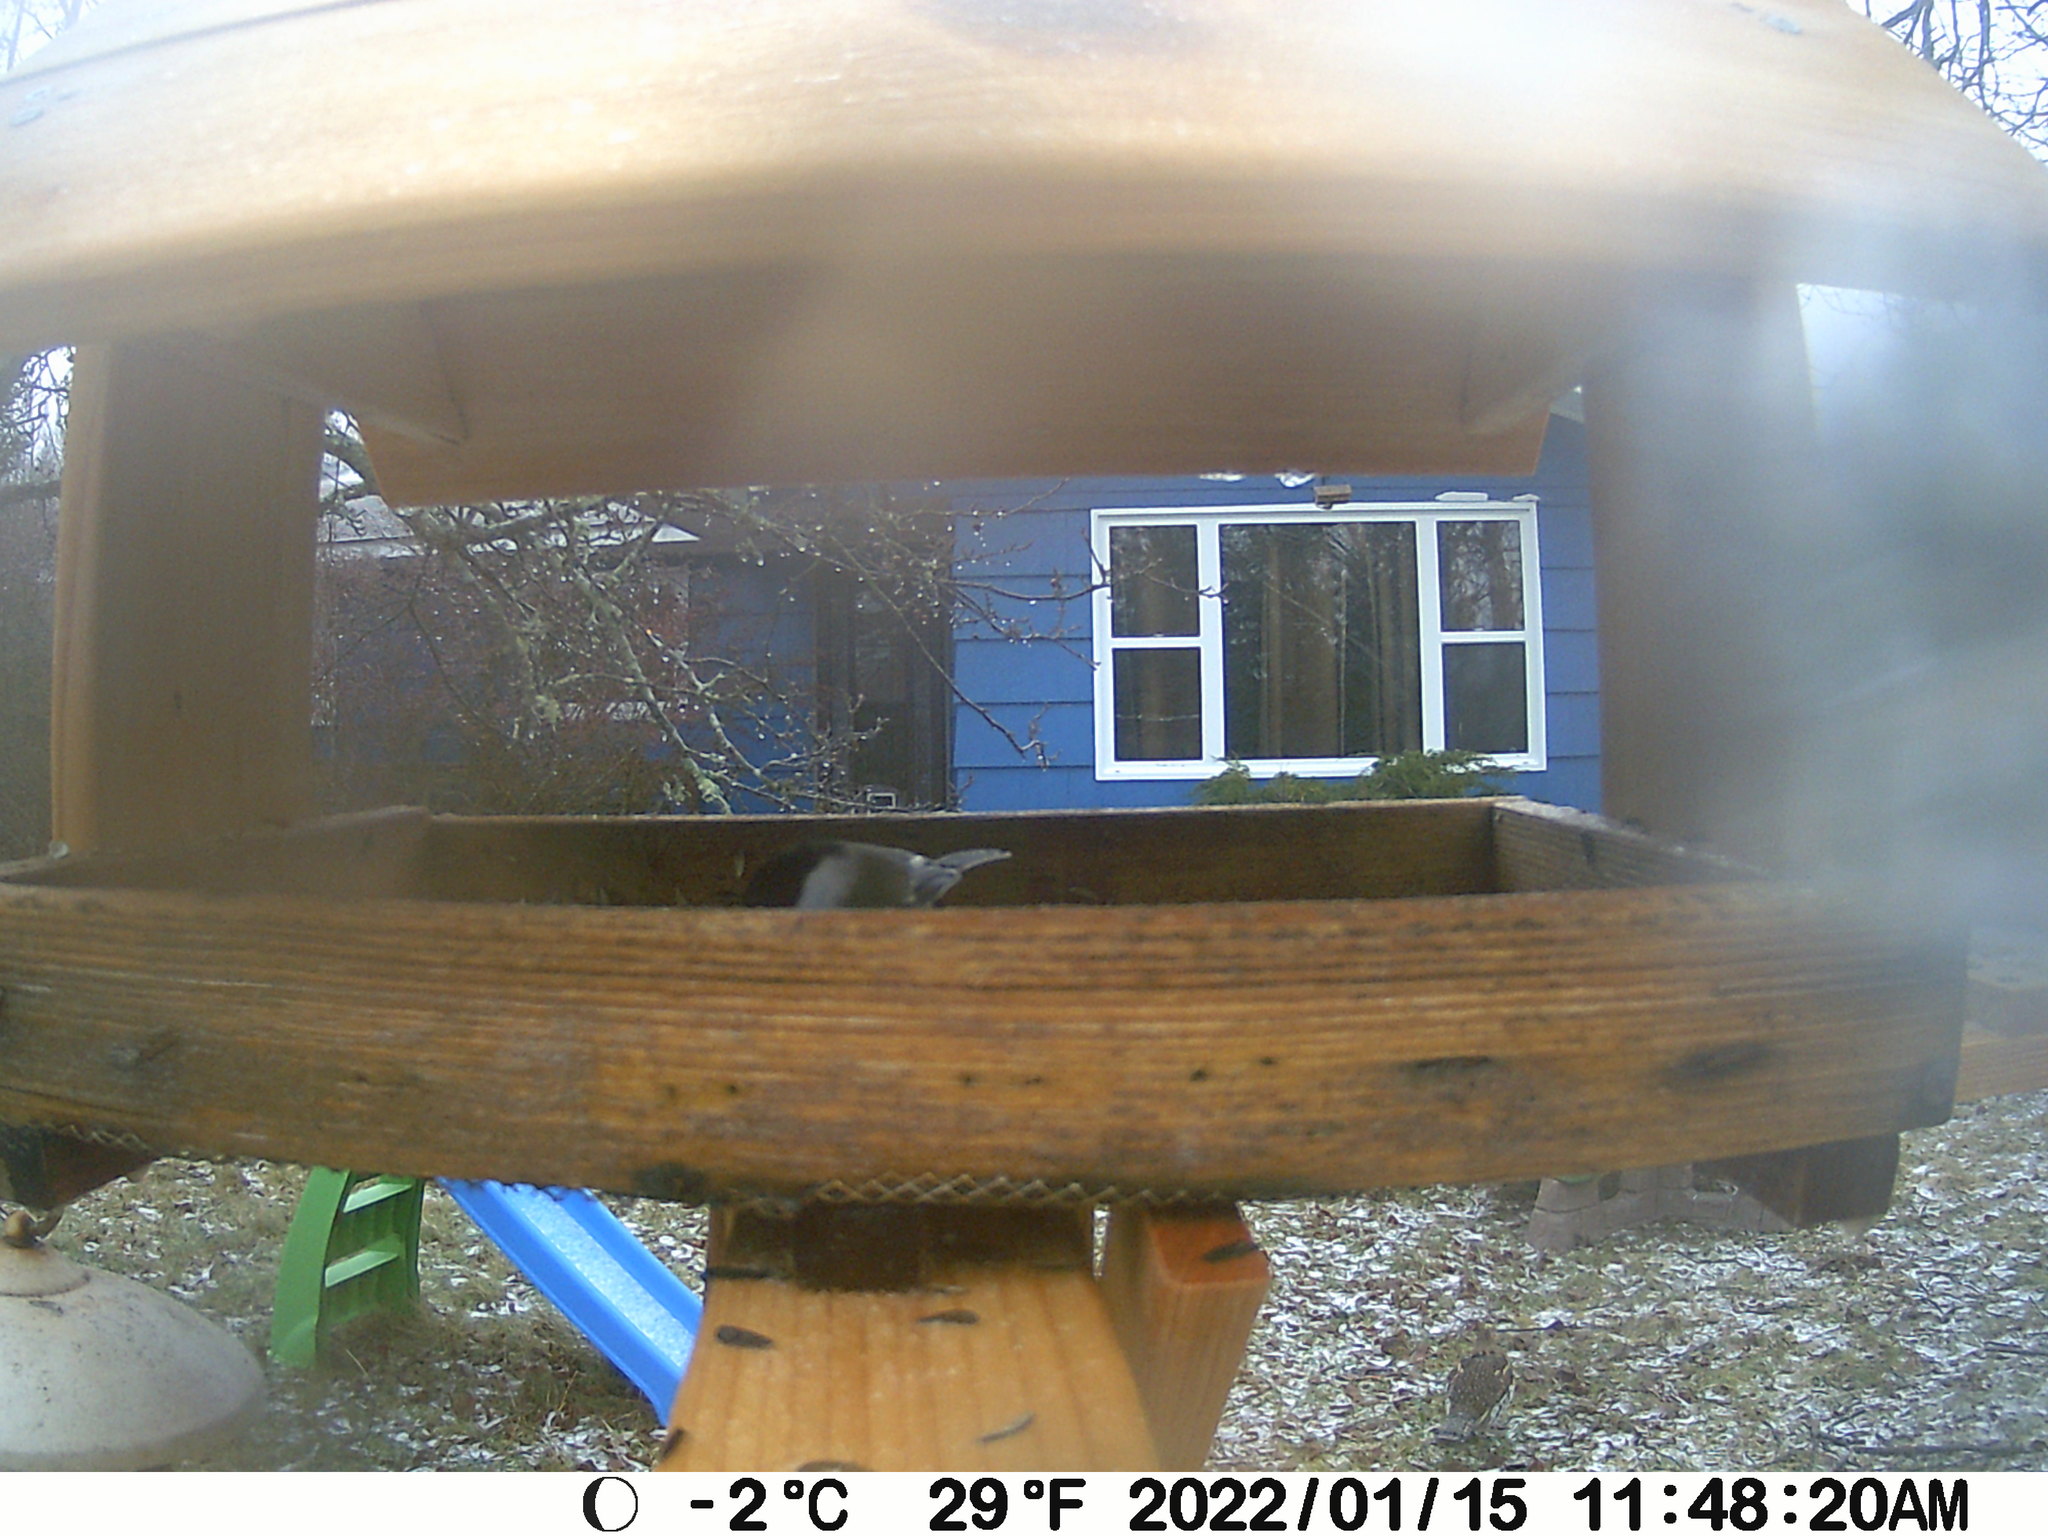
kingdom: Animalia
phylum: Chordata
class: Aves
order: Galliformes
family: Phasianidae
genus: Bonasa
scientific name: Bonasa umbellus
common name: Ruffed grouse
